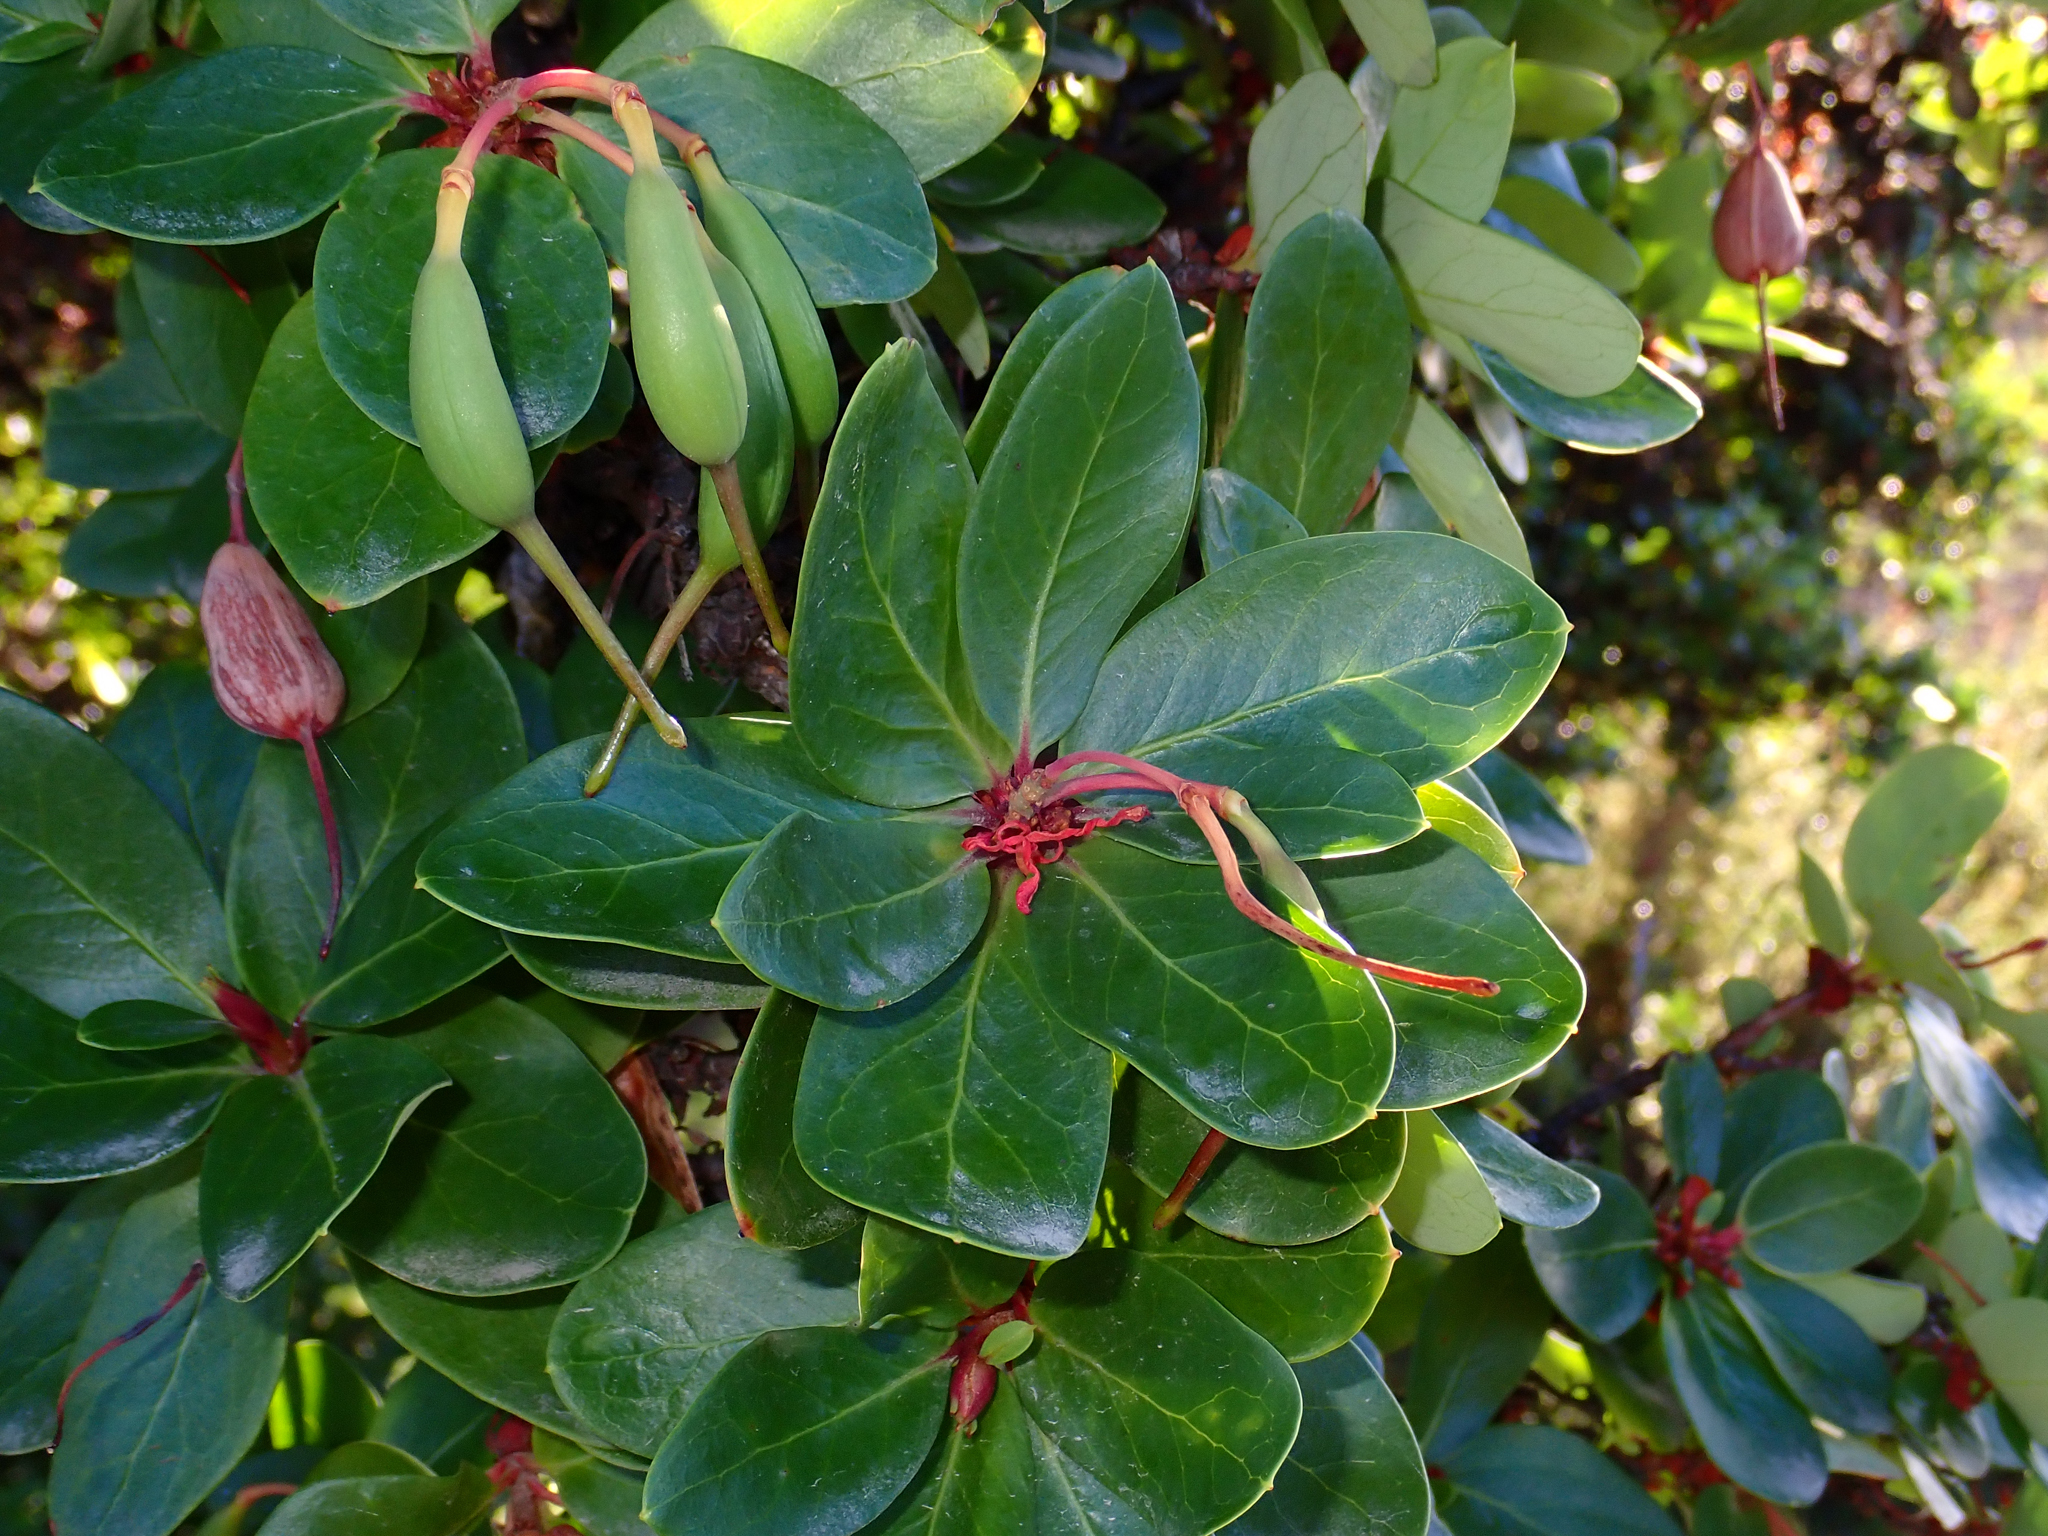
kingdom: Plantae
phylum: Tracheophyta
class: Magnoliopsida
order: Proteales
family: Proteaceae
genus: Embothrium
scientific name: Embothrium coccineum
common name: Chilean firebush
